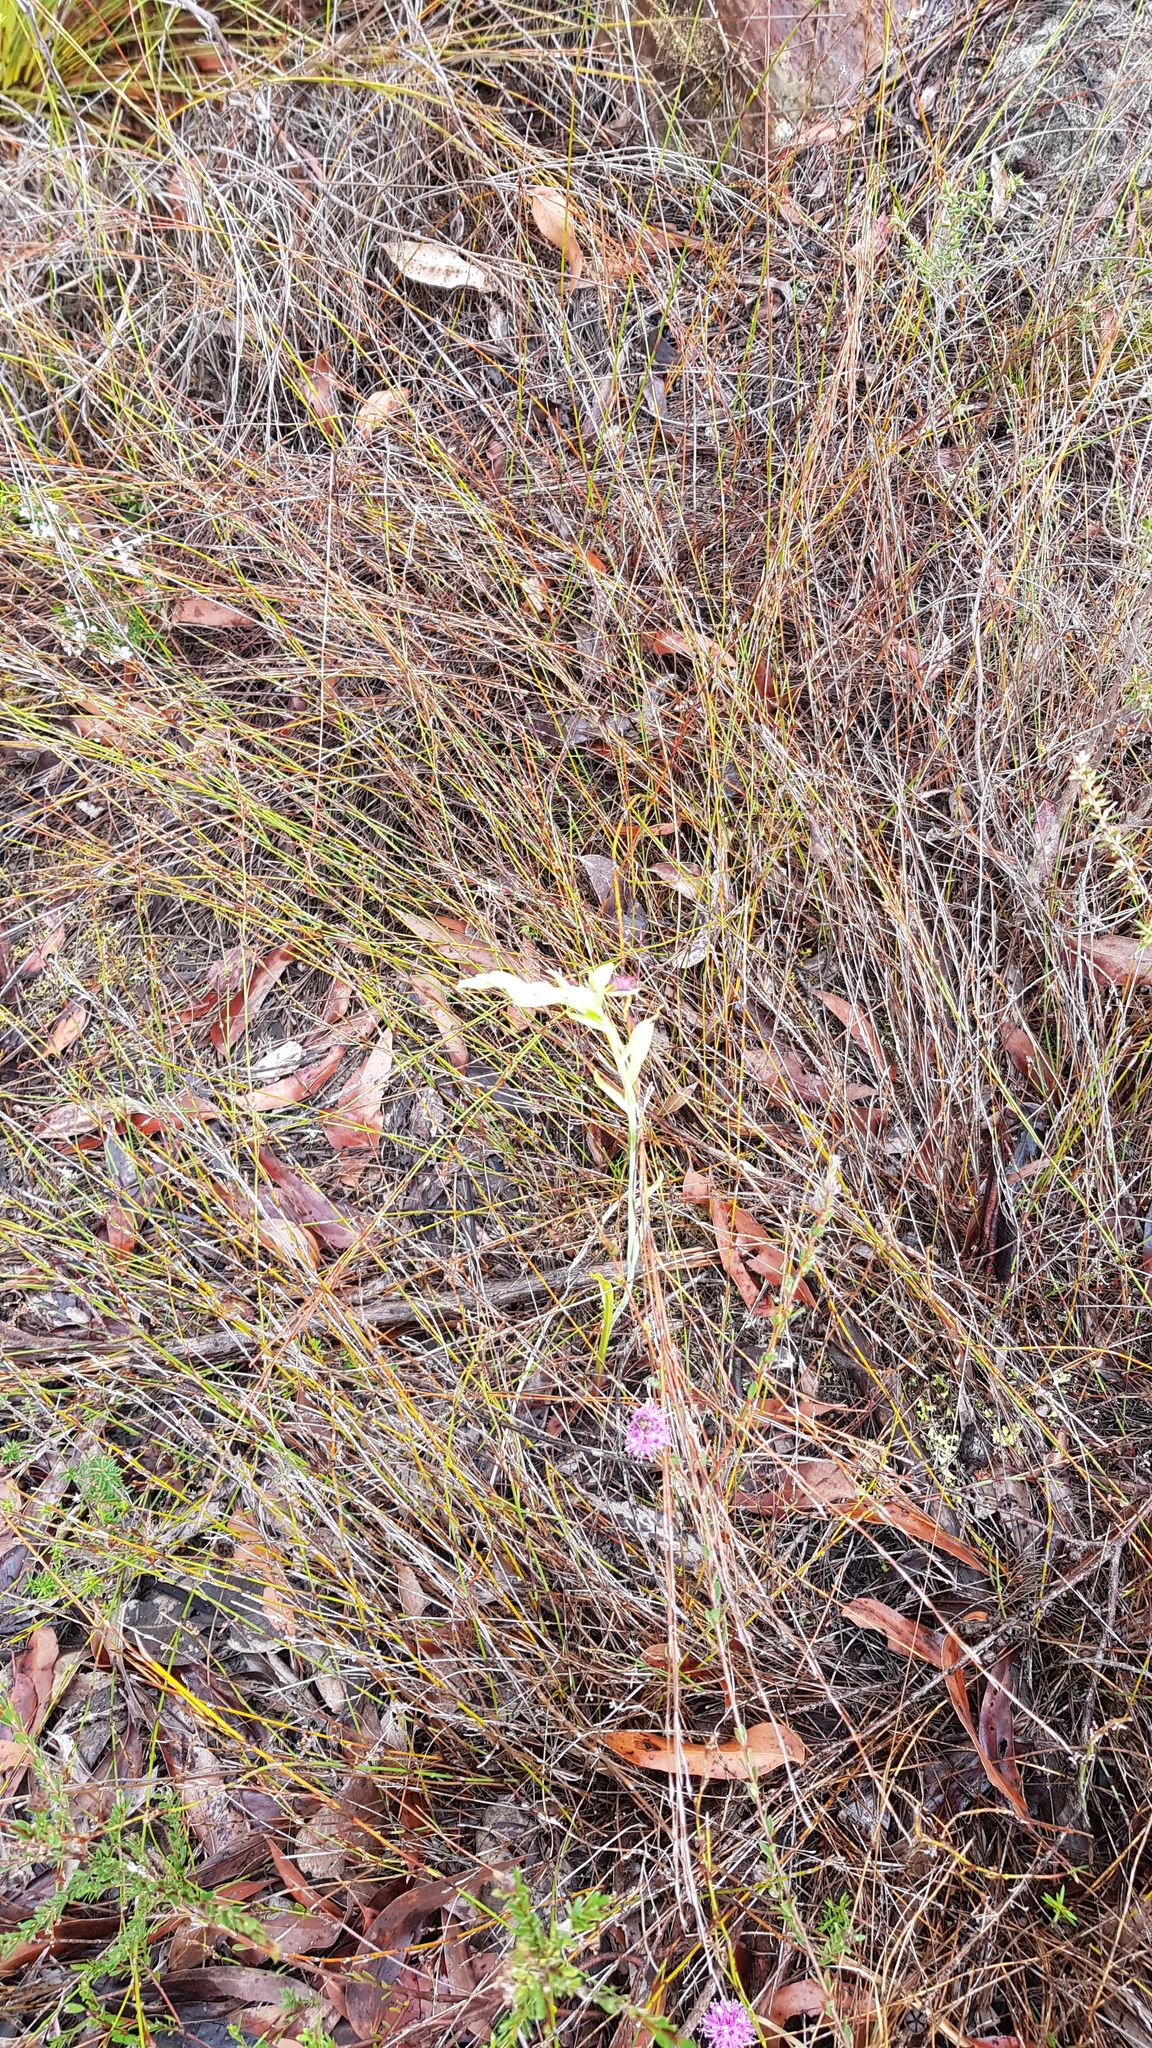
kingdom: Plantae
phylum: Tracheophyta
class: Liliopsida
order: Asparagales
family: Orchidaceae
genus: Calochilus
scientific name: Calochilus paludosus
